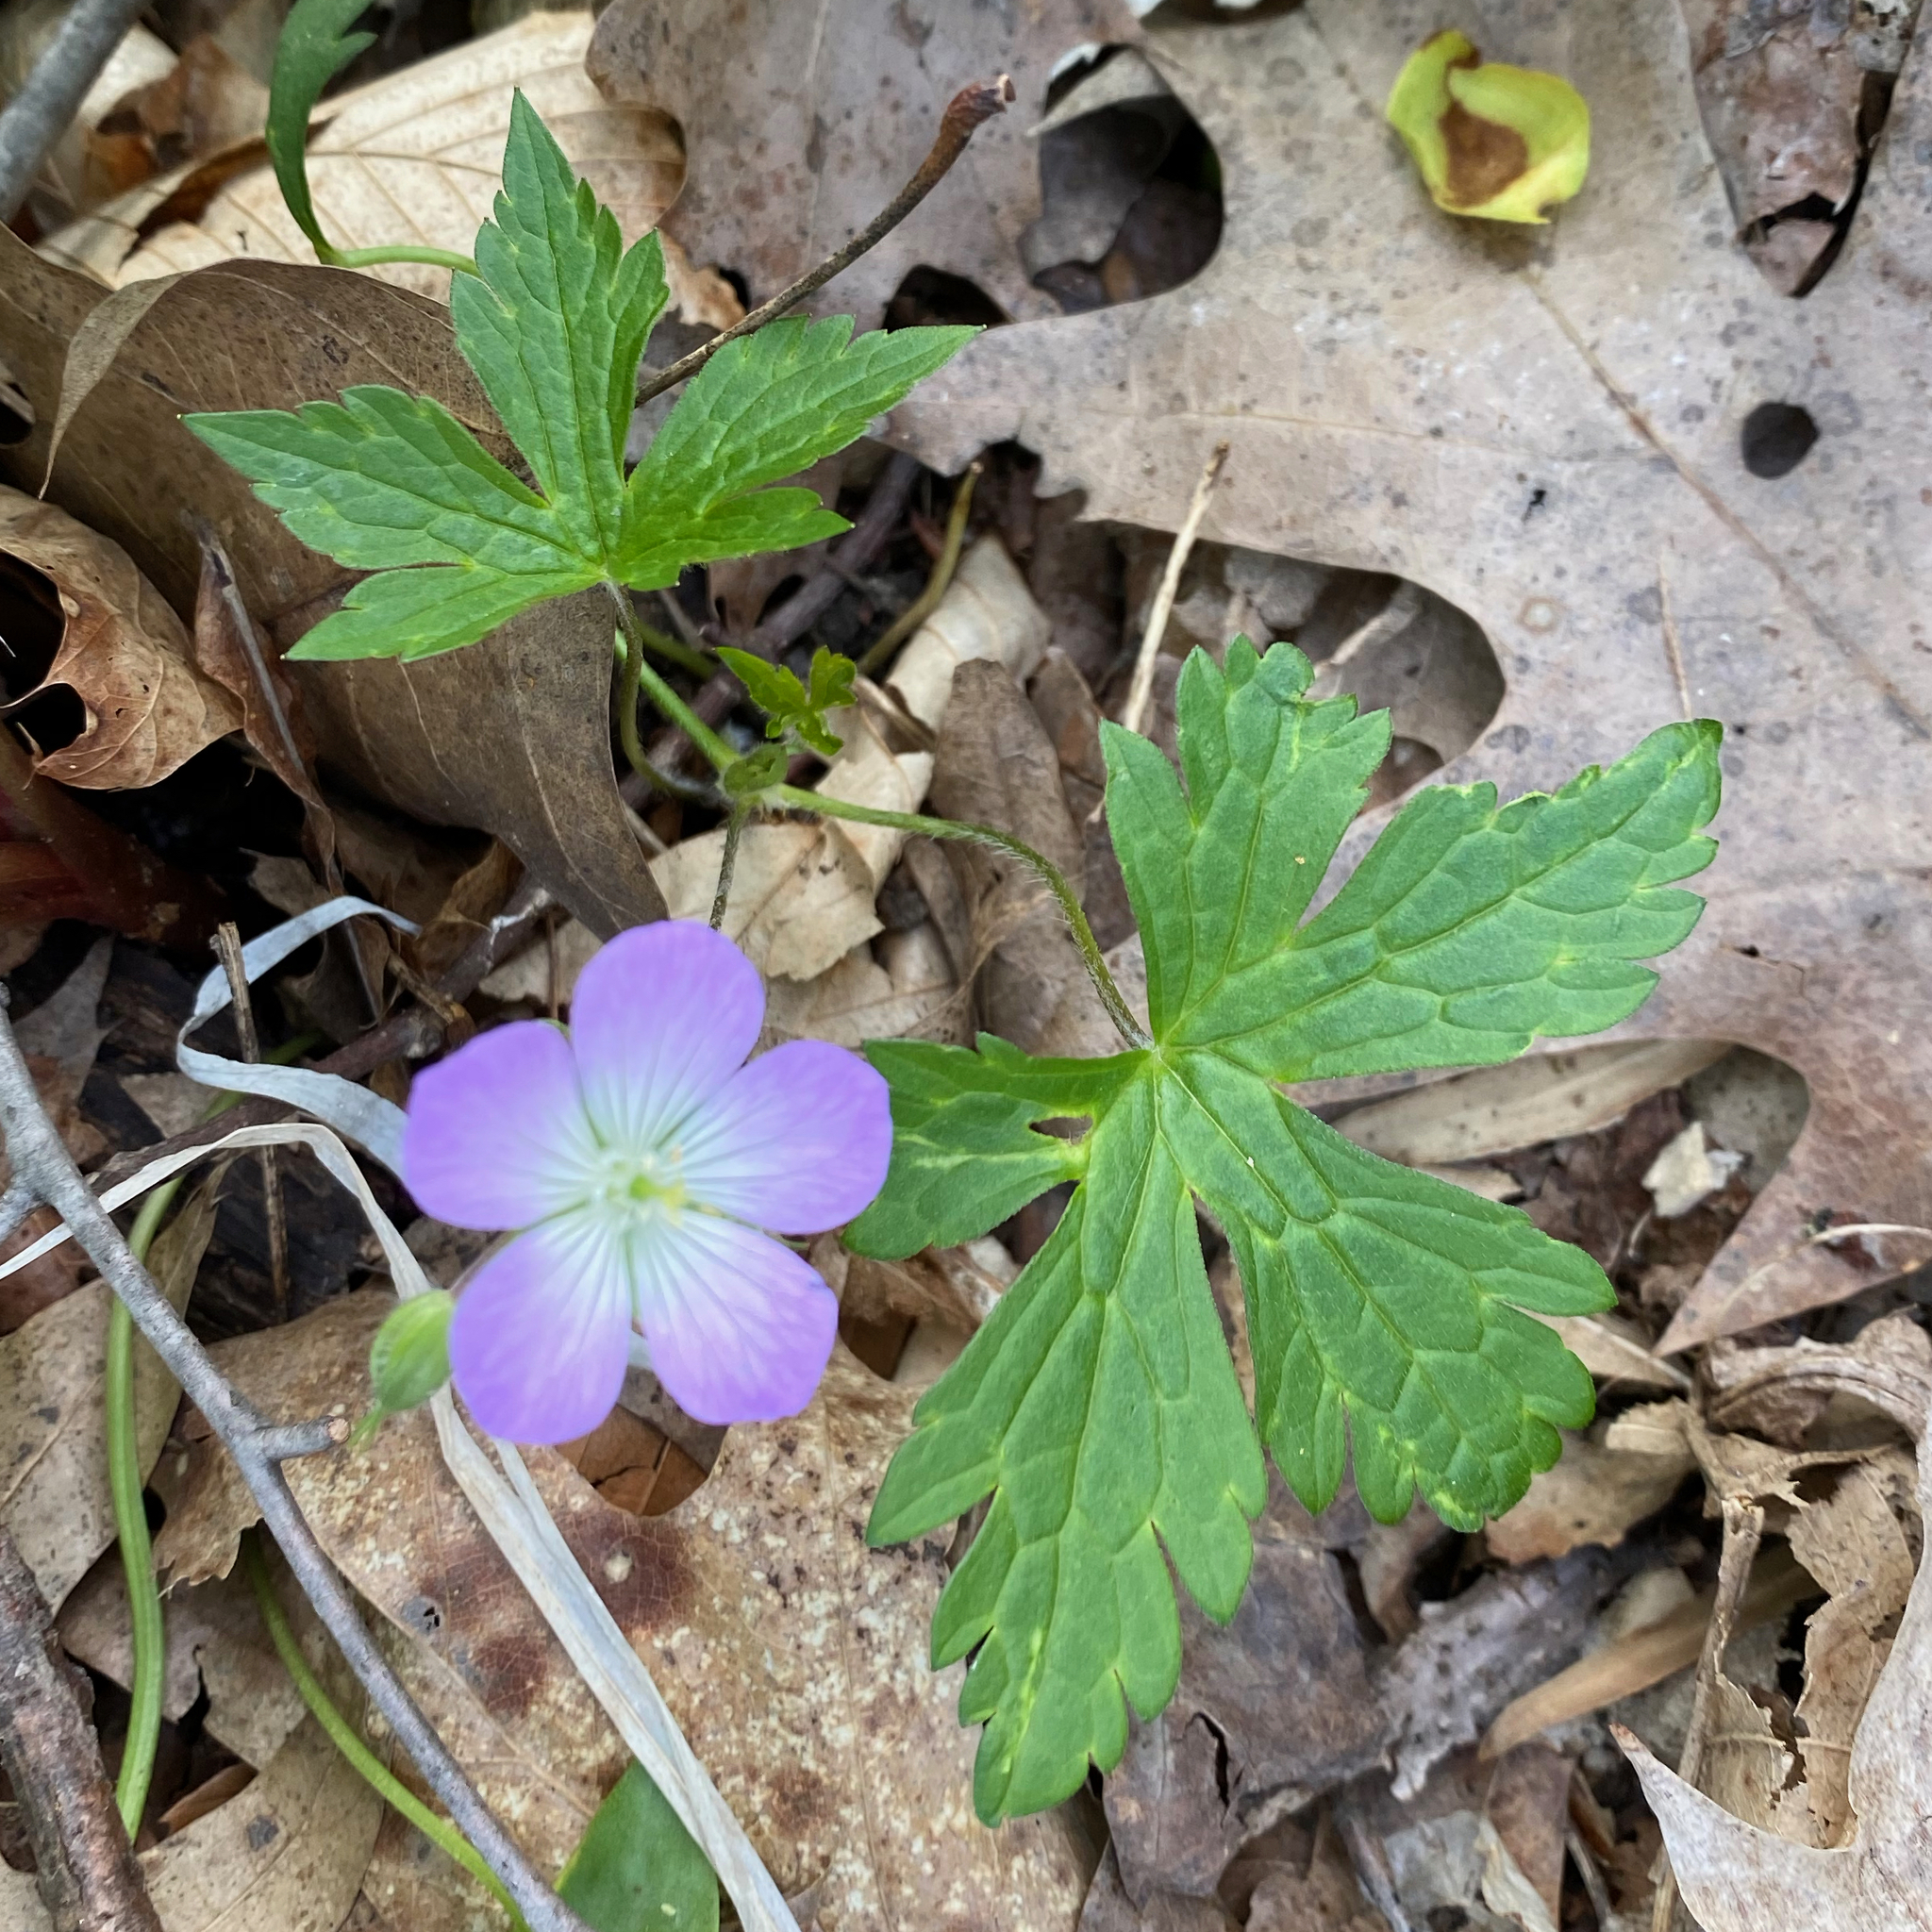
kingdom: Plantae
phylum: Tracheophyta
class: Magnoliopsida
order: Geraniales
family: Geraniaceae
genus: Geranium
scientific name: Geranium maculatum
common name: Spotted geranium
